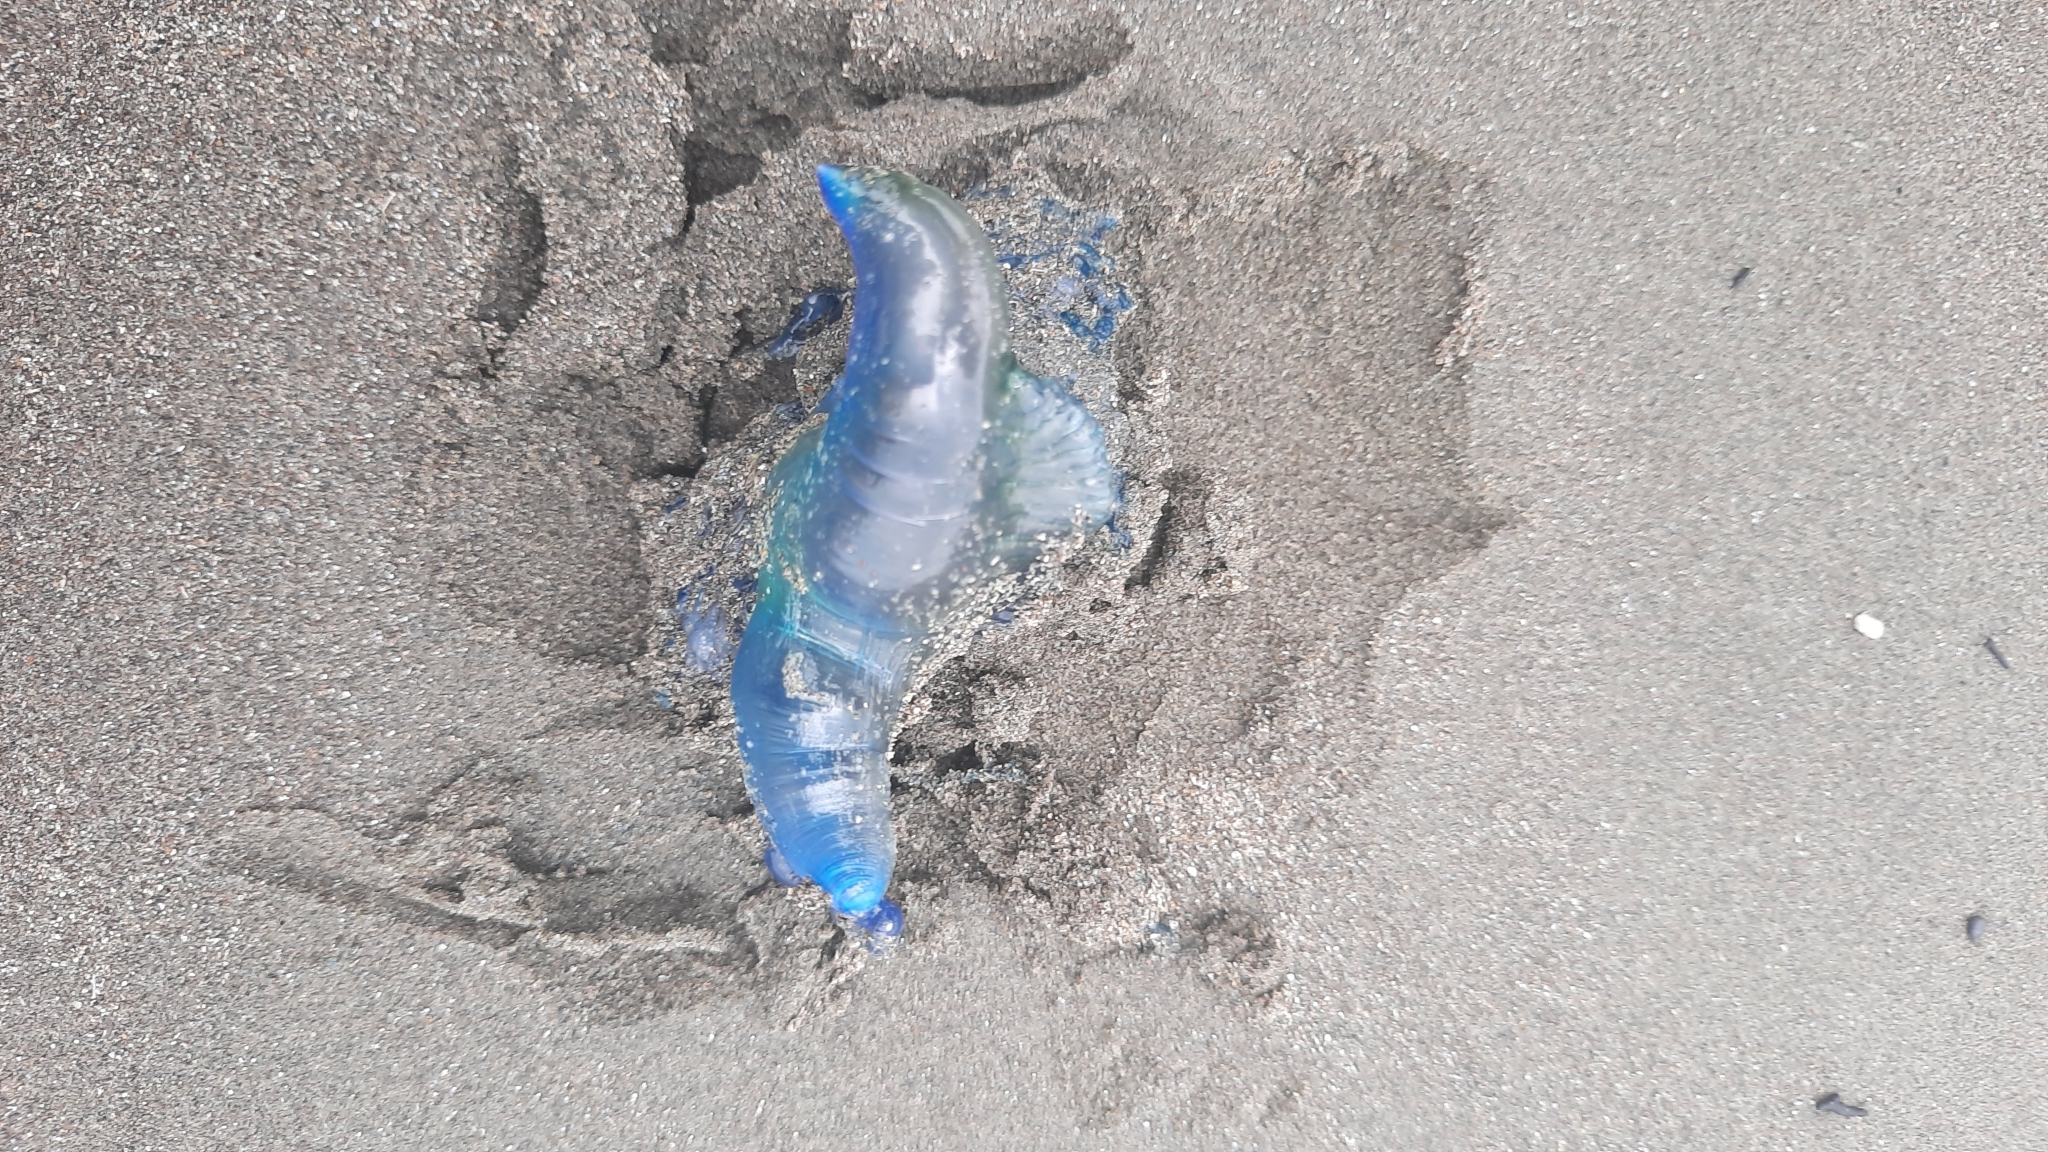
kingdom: Animalia
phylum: Cnidaria
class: Hydrozoa
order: Siphonophorae
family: Physaliidae
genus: Physalia
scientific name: Physalia physalis
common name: Portuguese man-of-war
